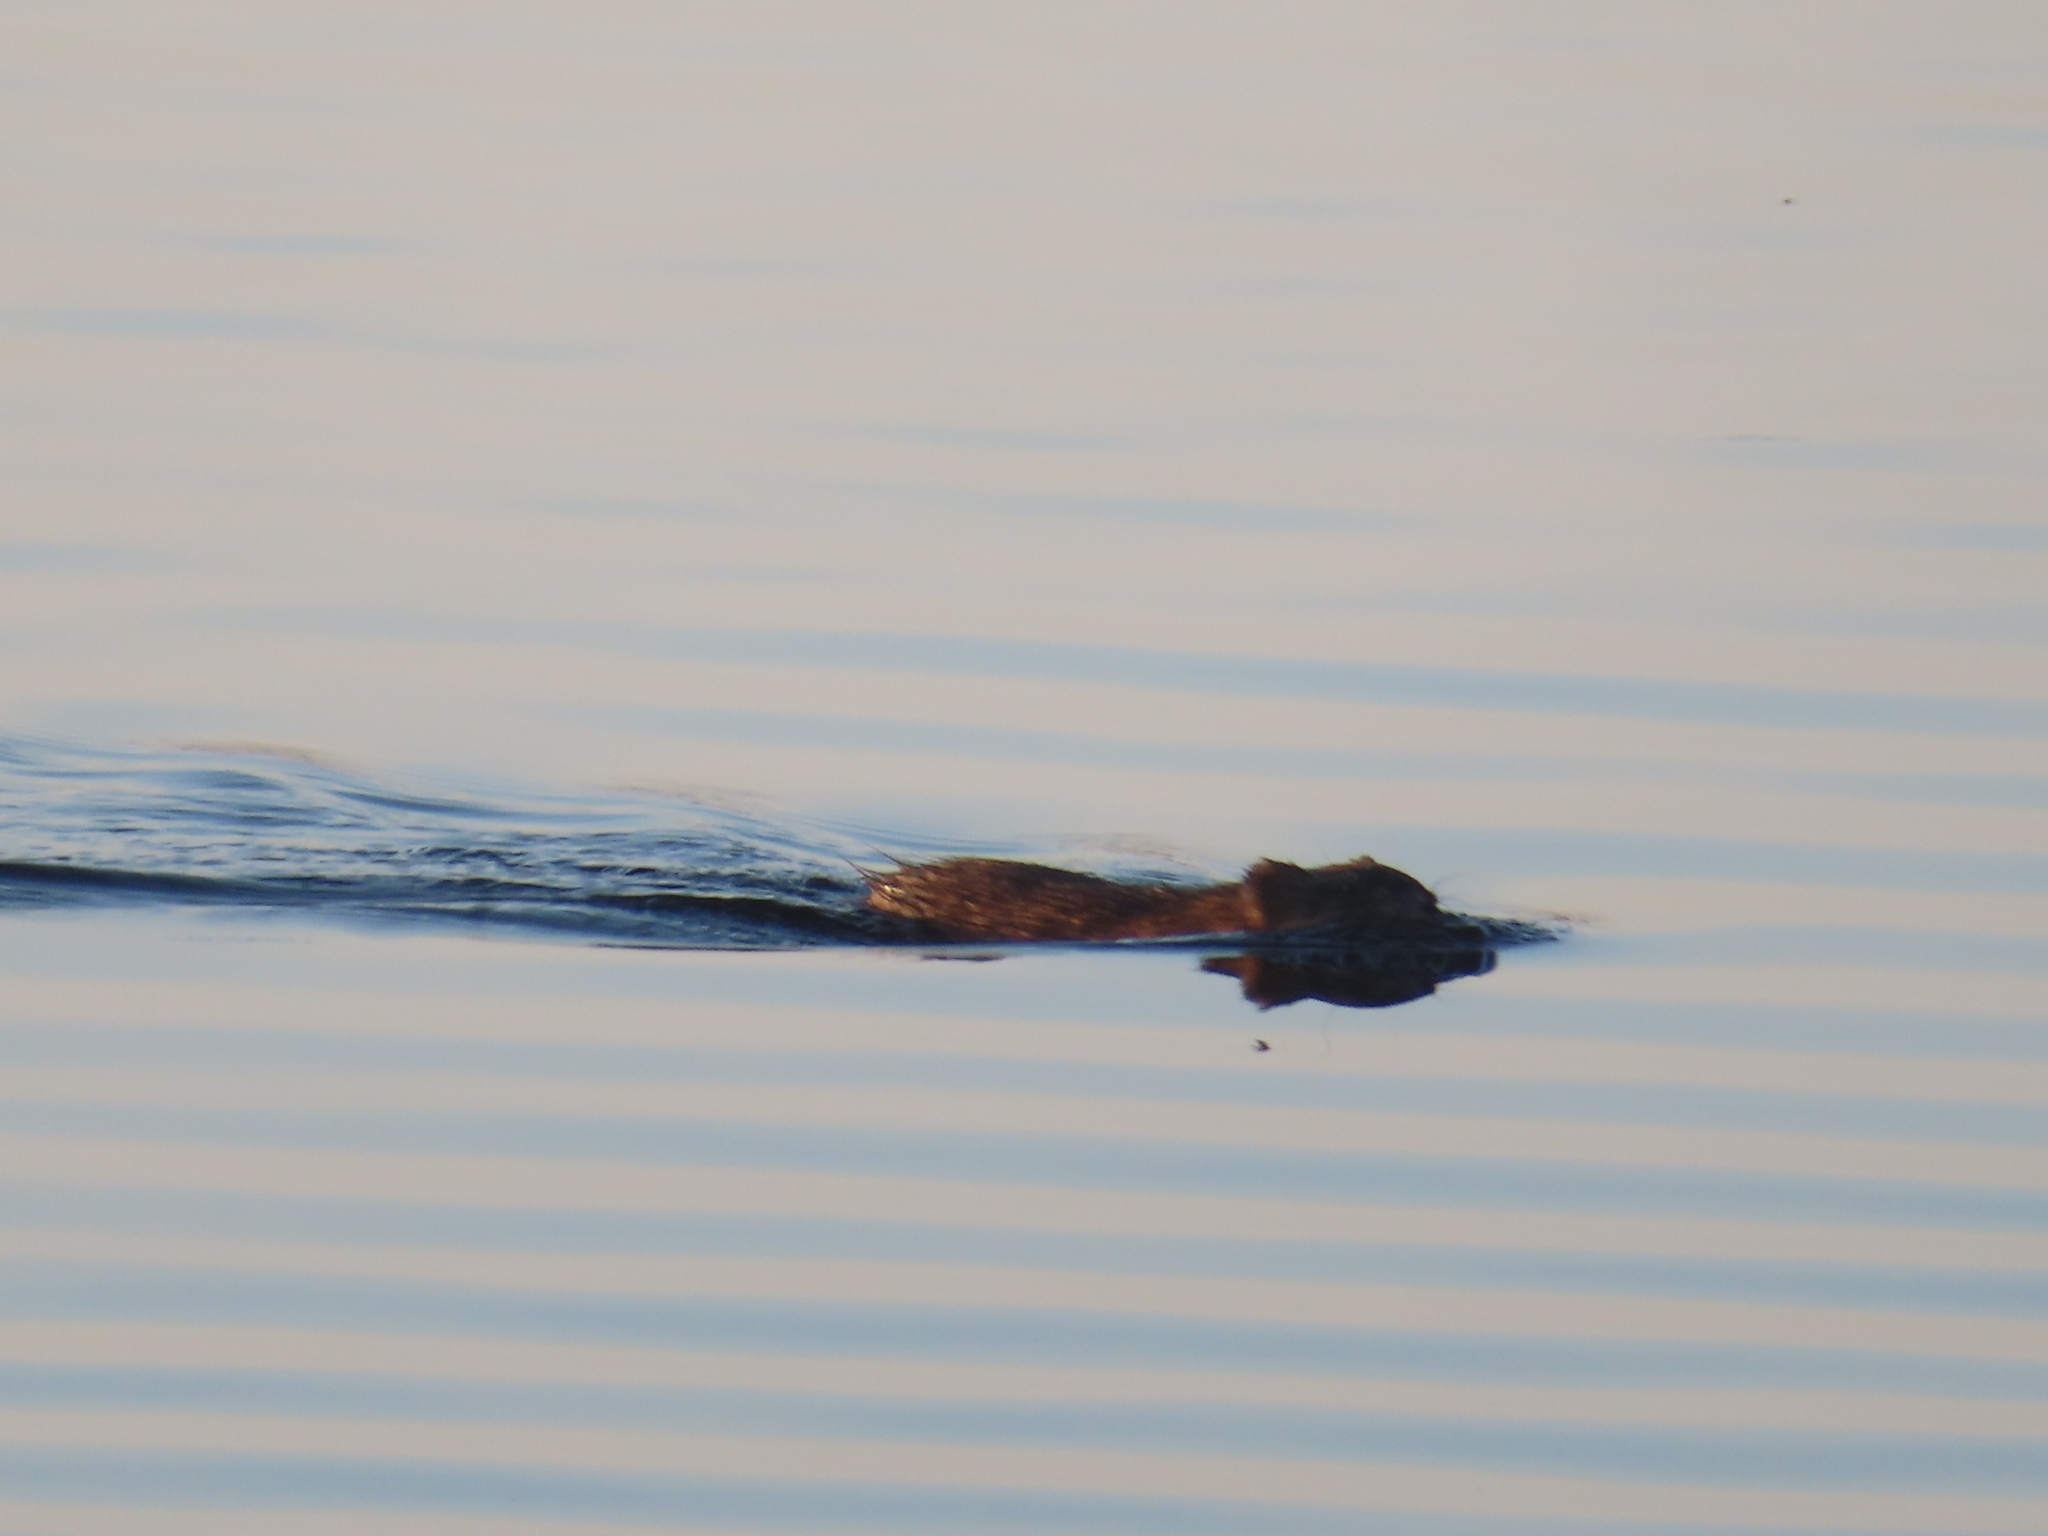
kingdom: Animalia
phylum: Chordata
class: Mammalia
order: Rodentia
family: Cricetidae
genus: Ondatra
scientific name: Ondatra zibethicus
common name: Muskrat
